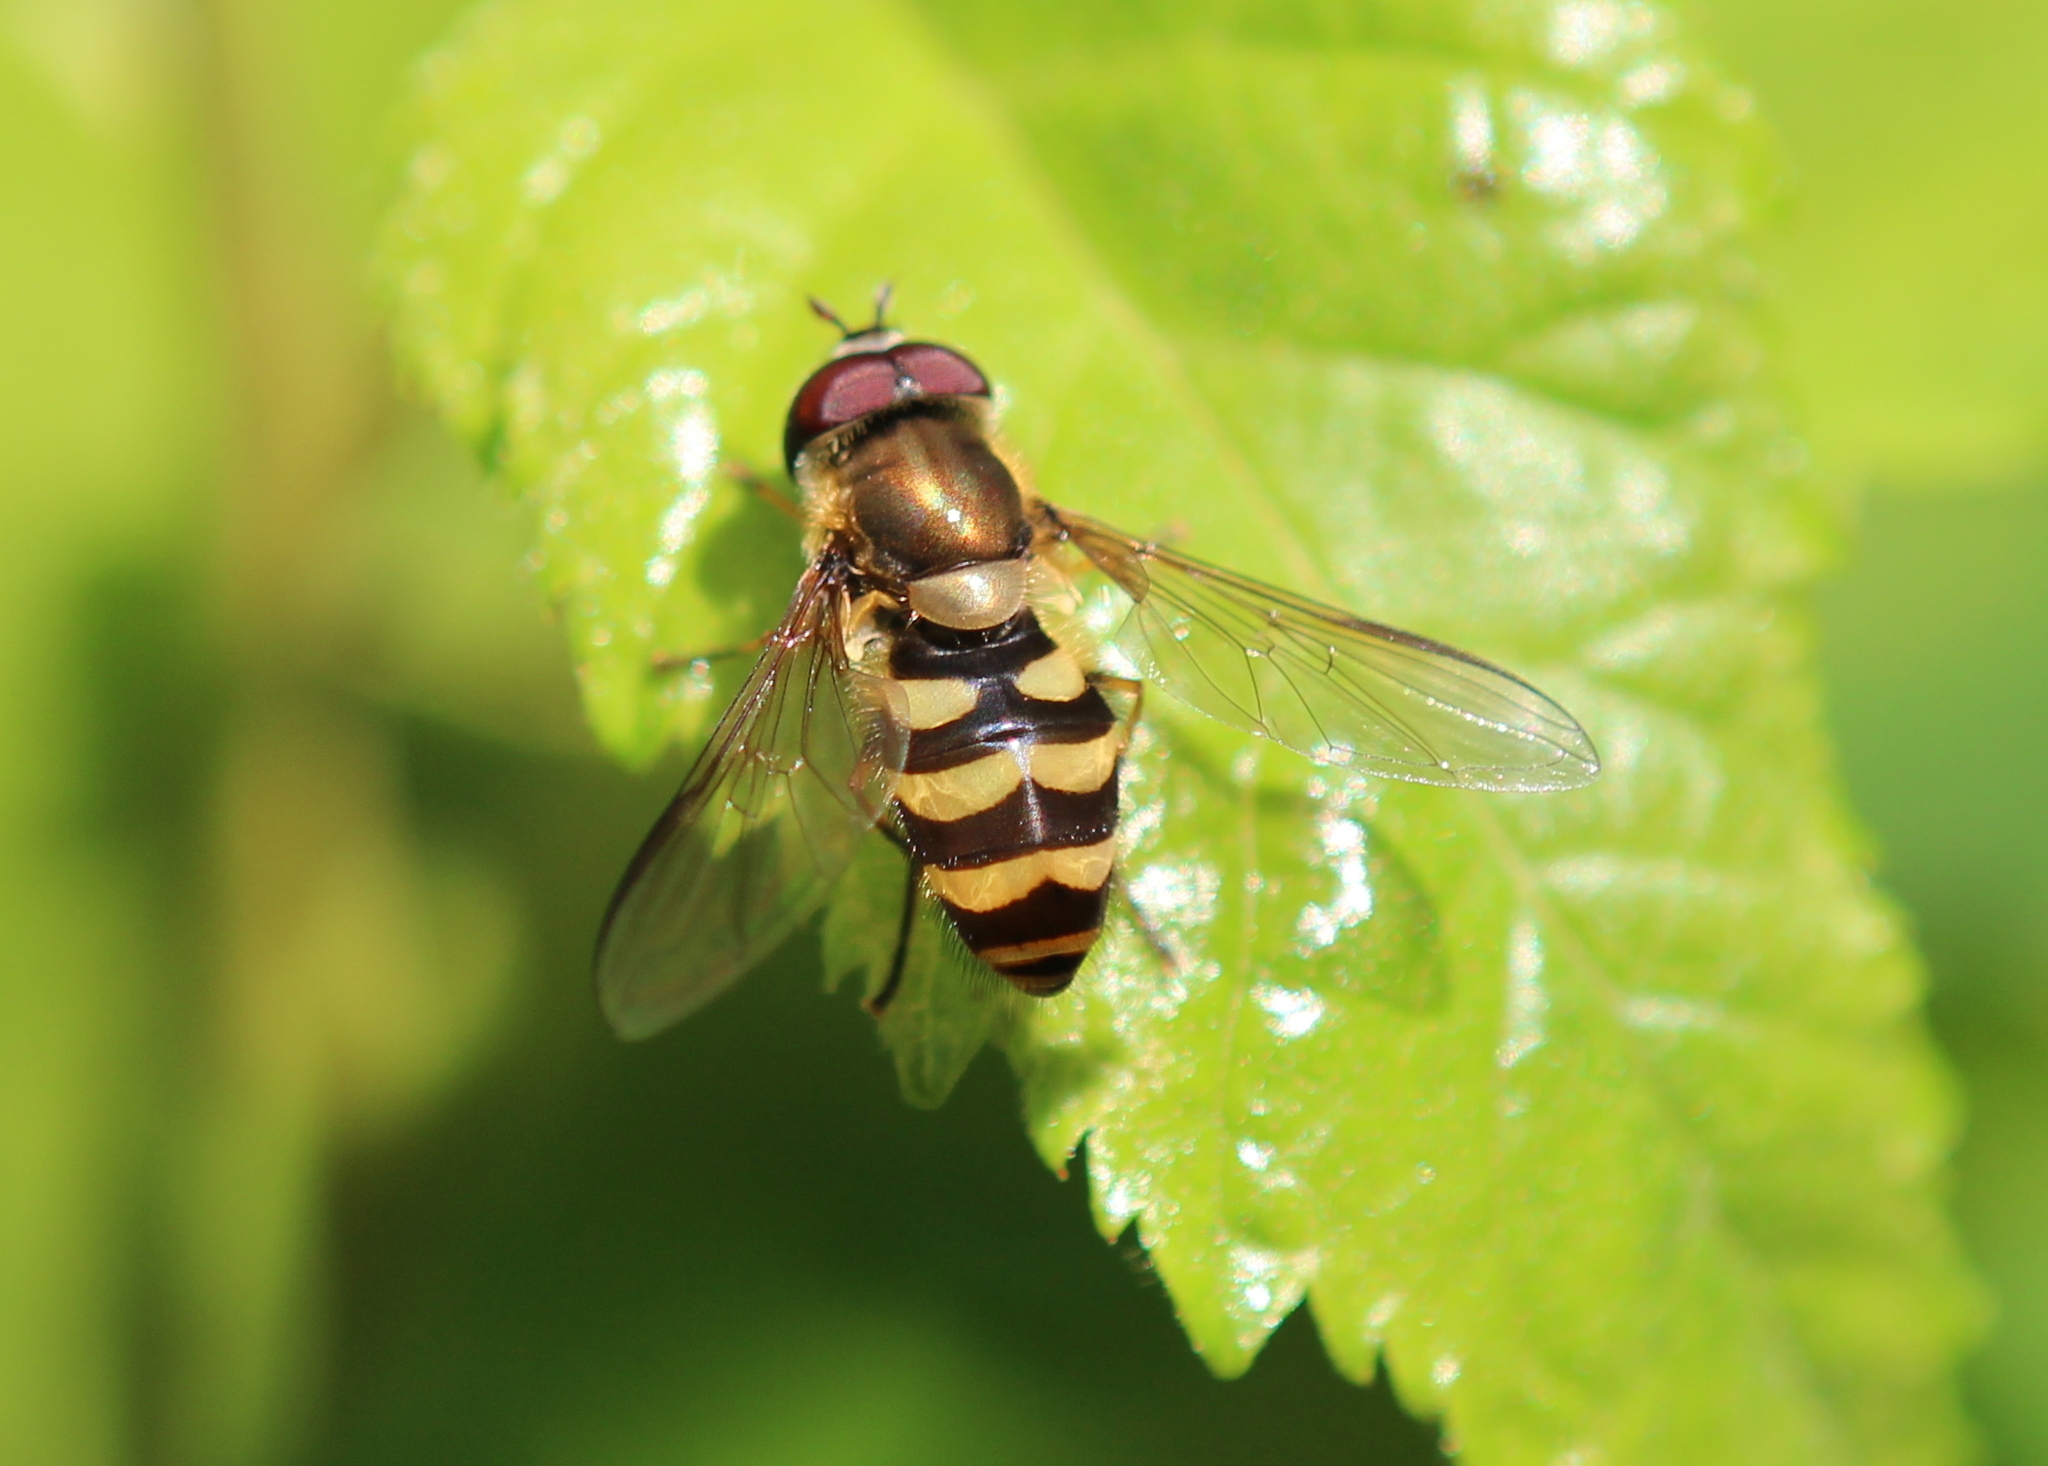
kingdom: Animalia
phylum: Arthropoda
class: Insecta
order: Diptera
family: Syrphidae
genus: Syrphus
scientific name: Syrphus
